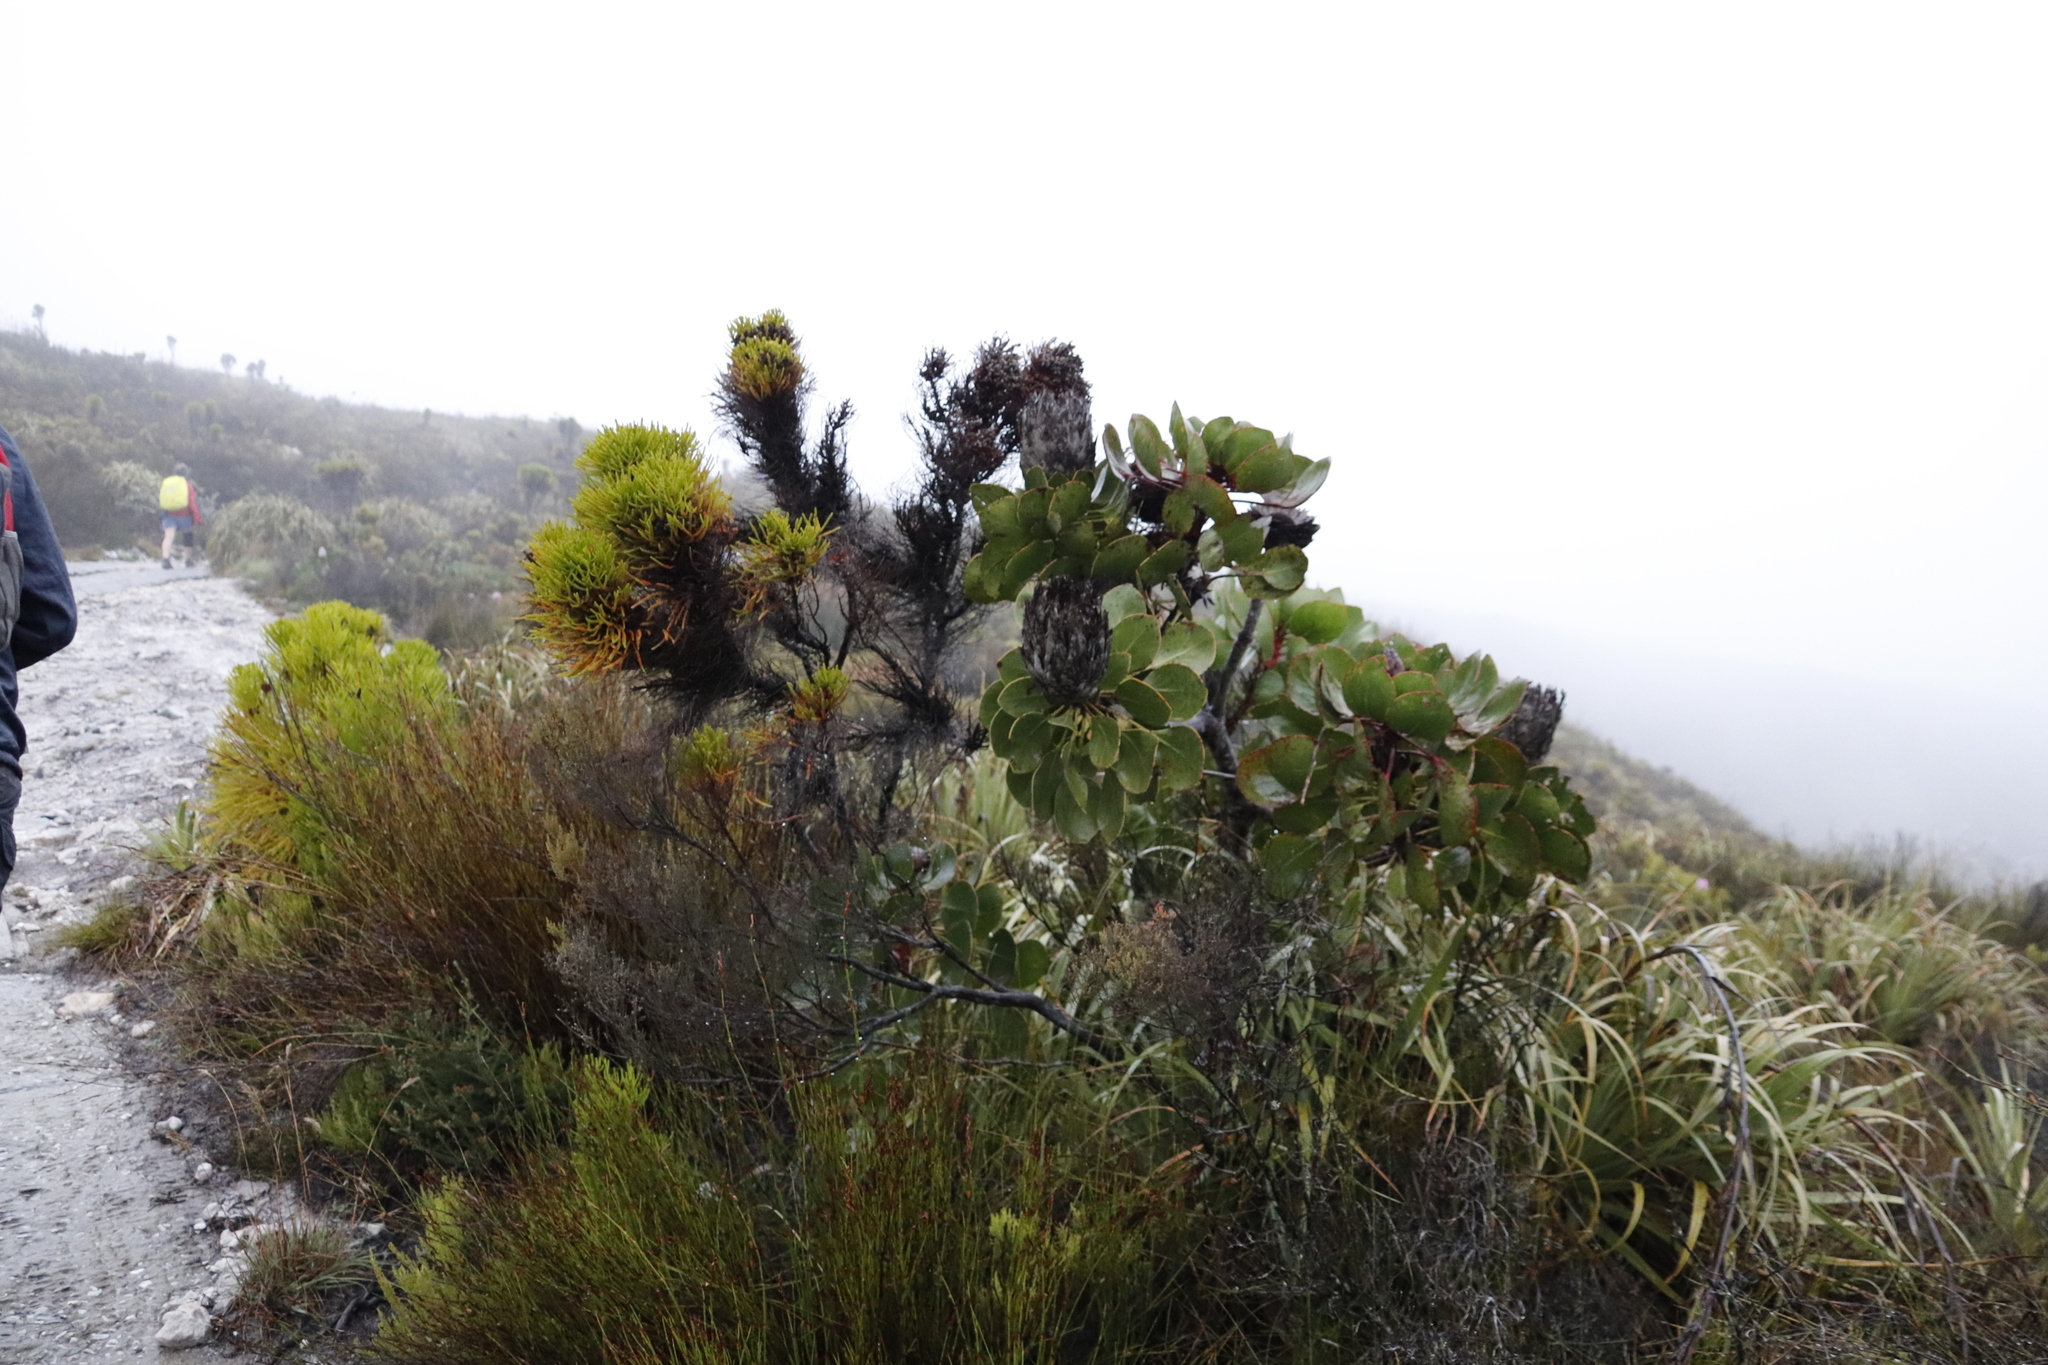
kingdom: Plantae
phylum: Tracheophyta
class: Magnoliopsida
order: Proteales
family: Proteaceae
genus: Protea
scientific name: Protea cynaroides
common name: King protea
